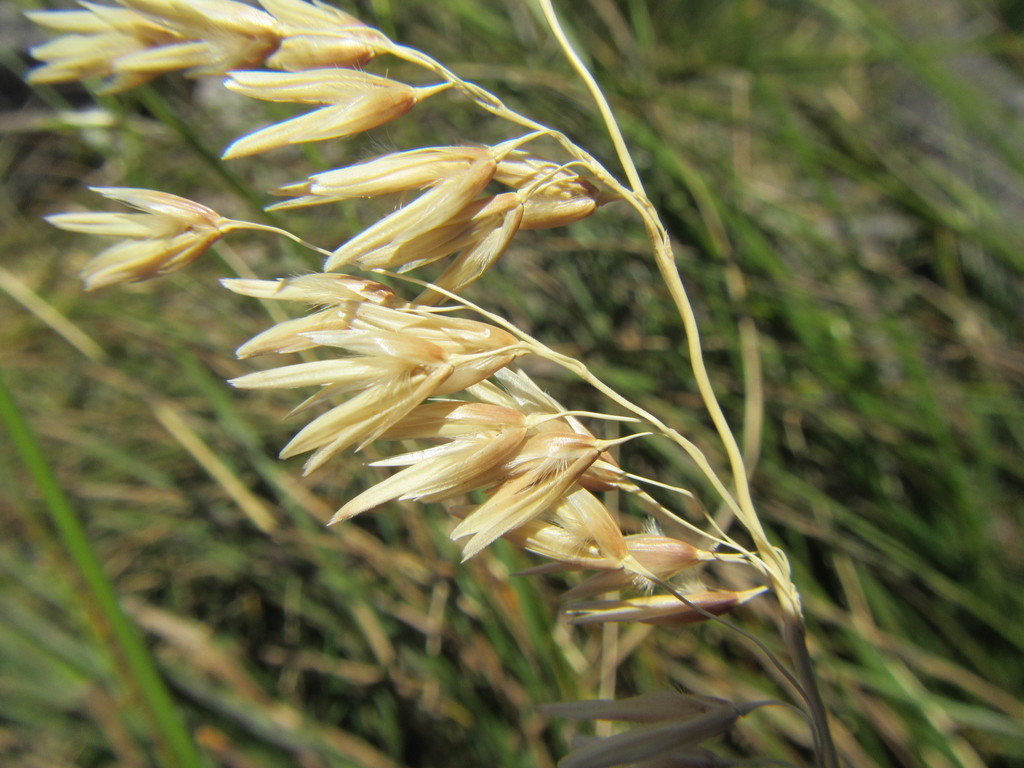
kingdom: Plantae
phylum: Tracheophyta
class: Liliopsida
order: Poales
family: Poaceae
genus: Ehrharta
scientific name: Ehrharta longifolia
